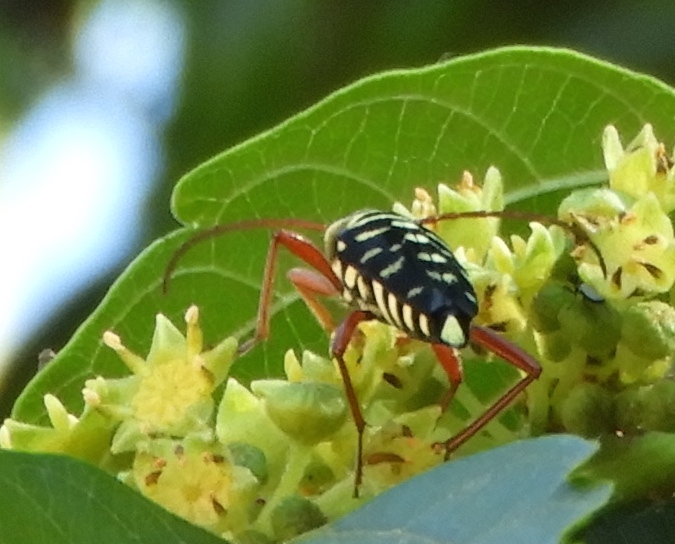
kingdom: Animalia
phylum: Arthropoda
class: Insecta
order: Coleoptera
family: Cerambycidae
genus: Placosternus
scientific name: Placosternus difficilis
